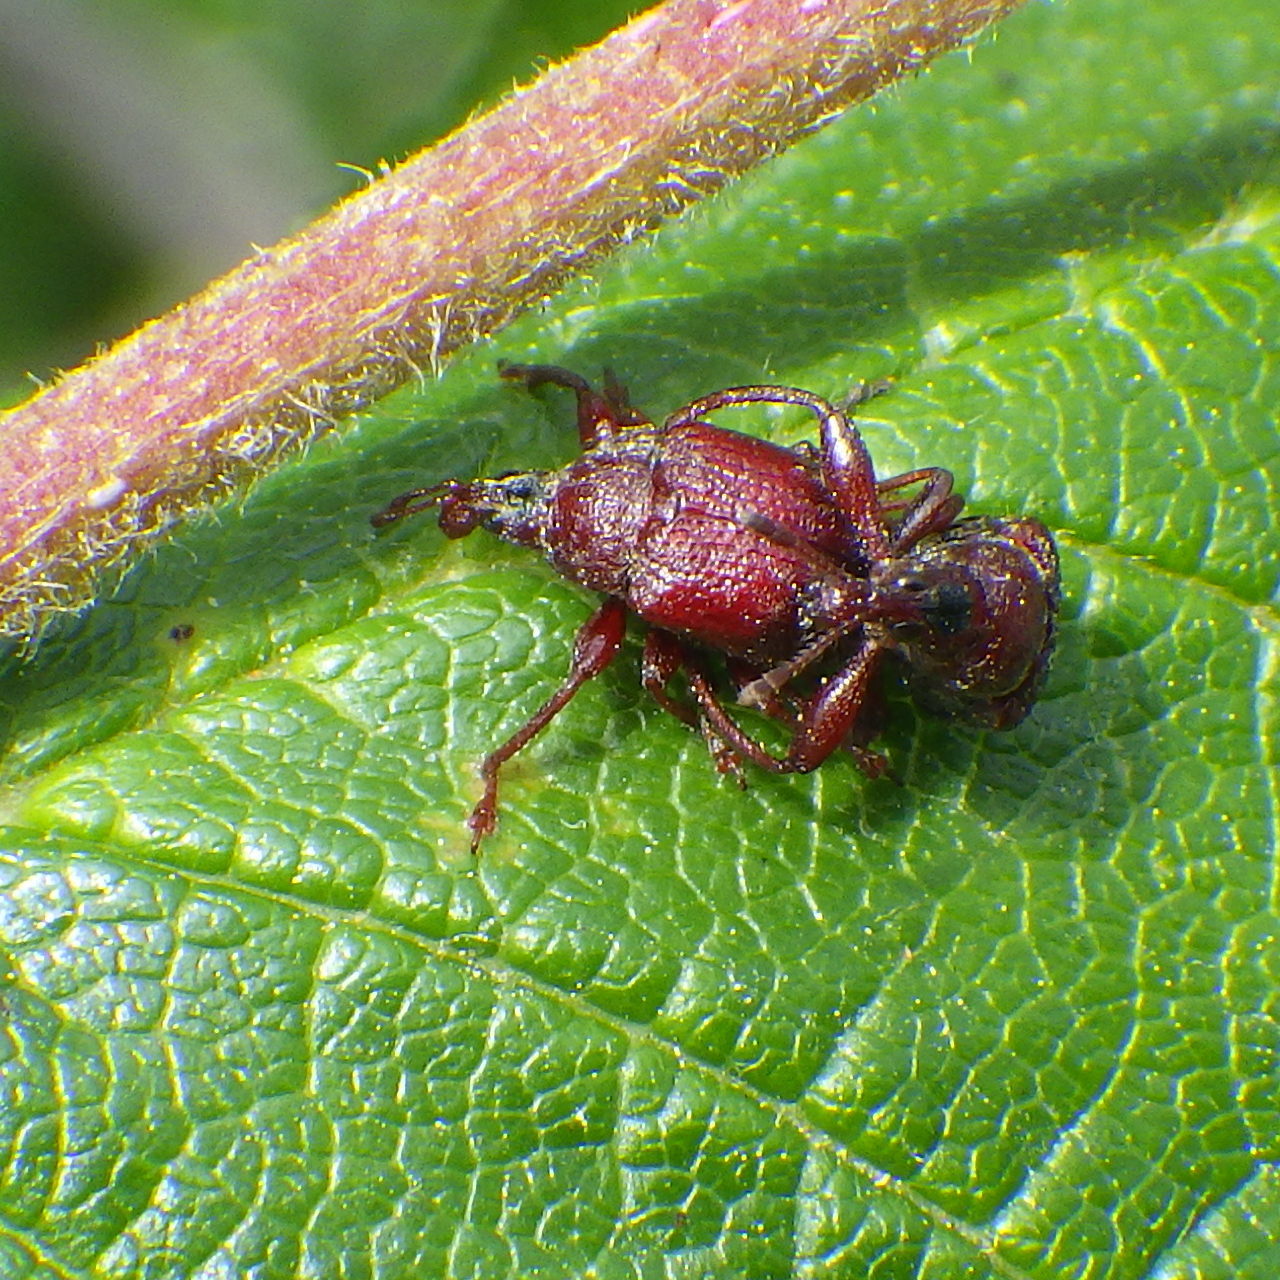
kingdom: Animalia
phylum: Arthropoda
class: Insecta
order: Coleoptera
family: Attelabidae
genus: Himatolabus
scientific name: Himatolabus pubescens
